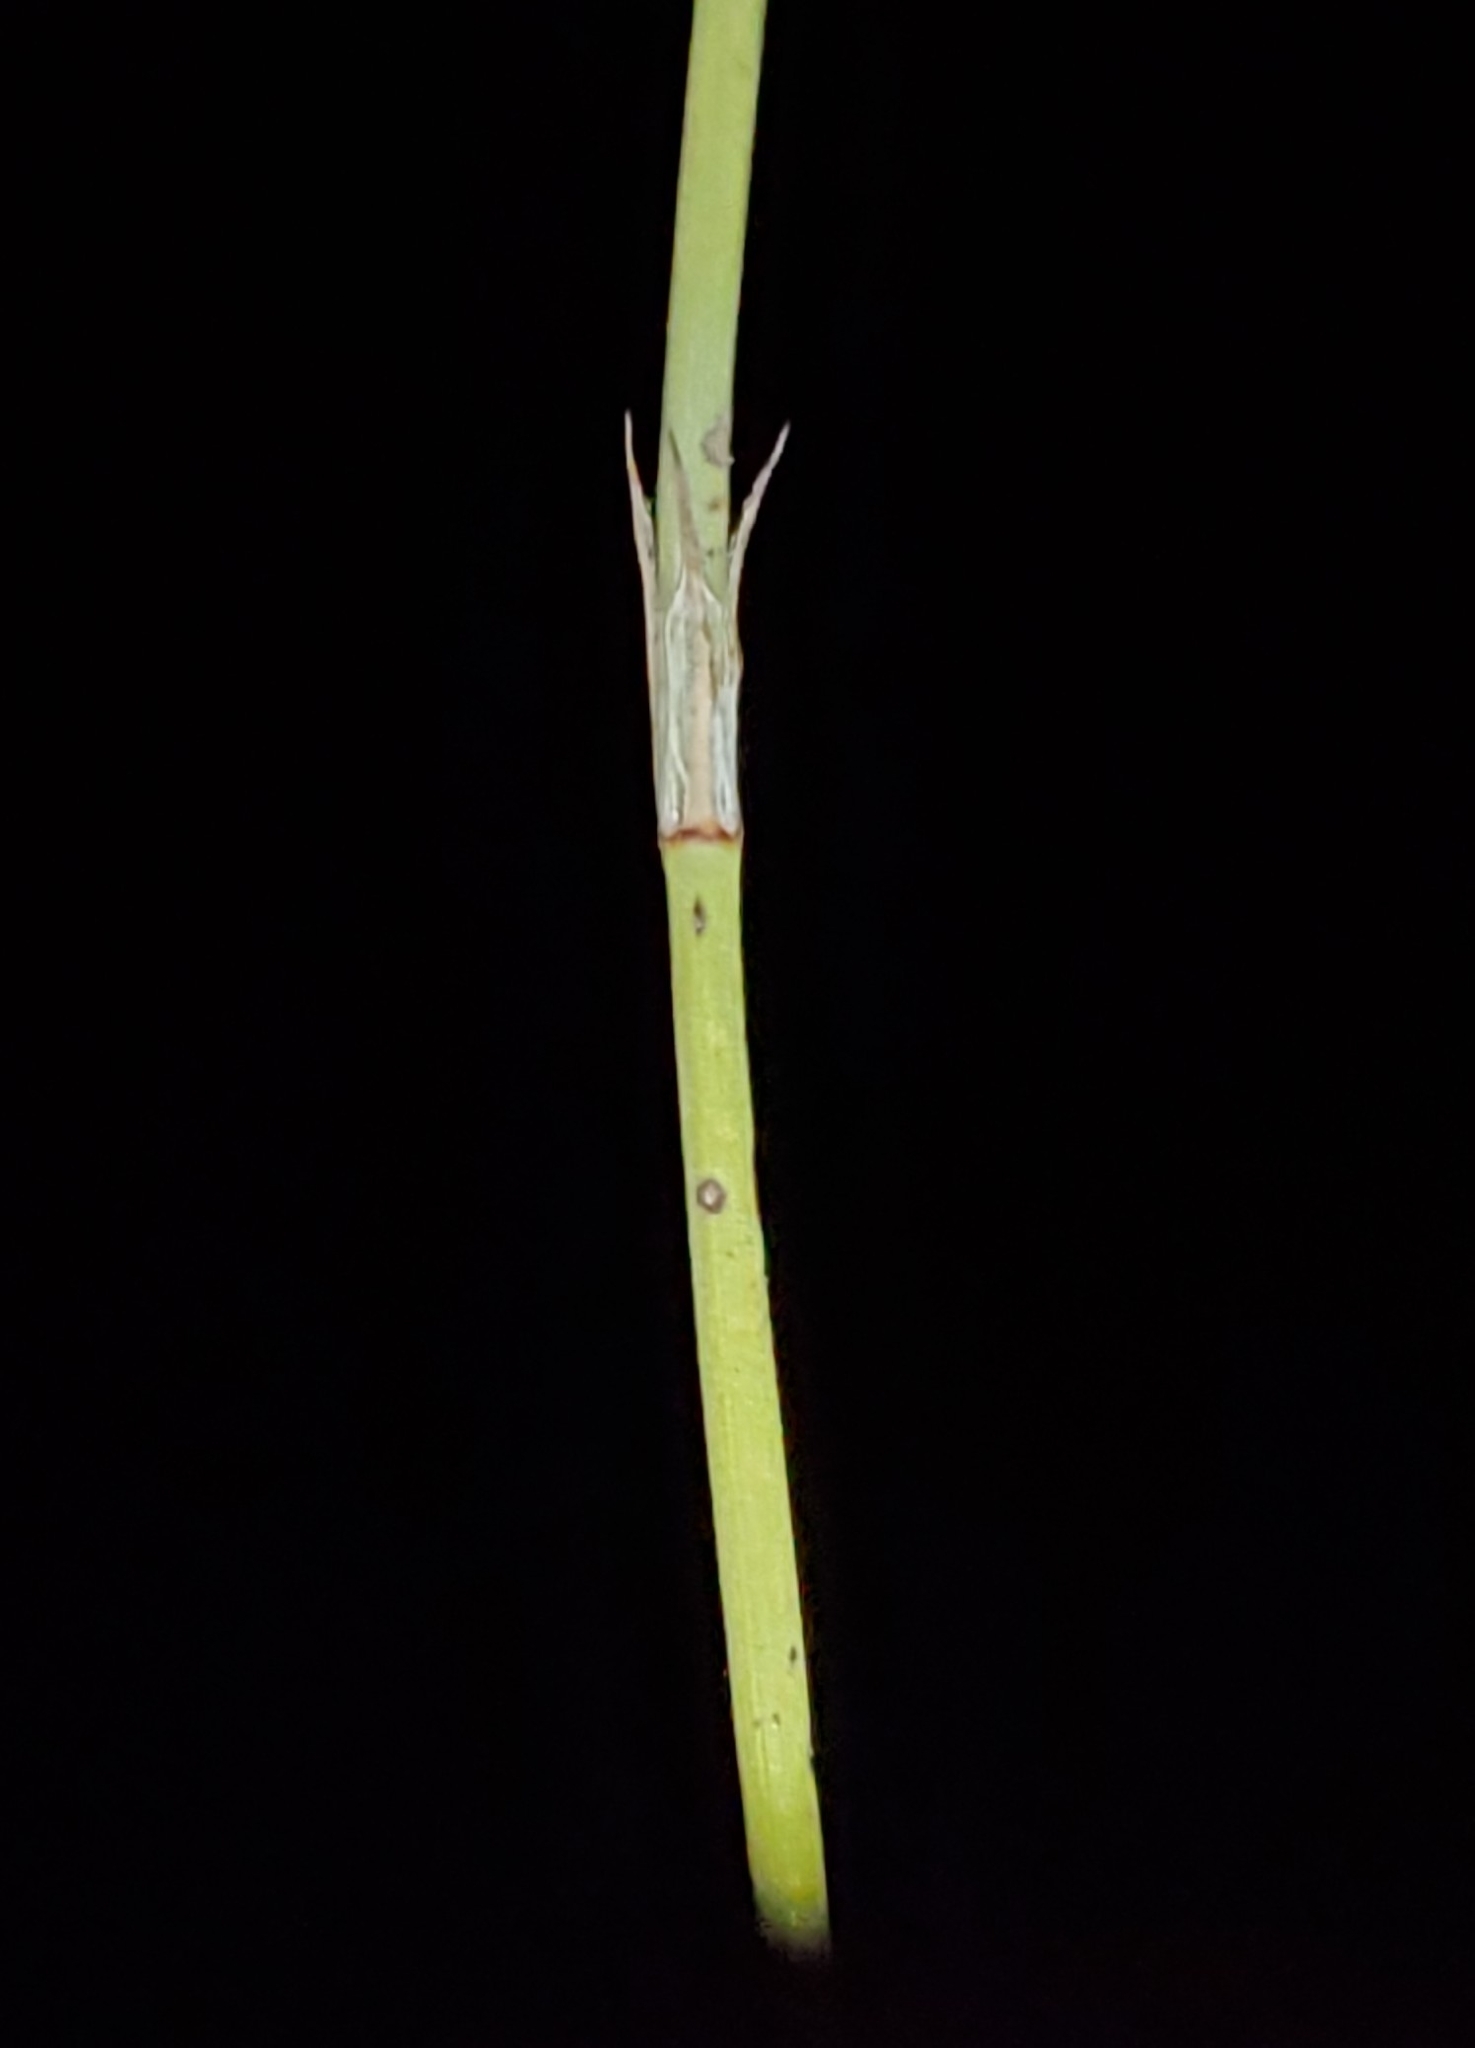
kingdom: Plantae
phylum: Tracheophyta
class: Gnetopsida
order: Ephedrales
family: Ephedraceae
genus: Ephedra
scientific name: Ephedra trifurca
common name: Mexican-tea
